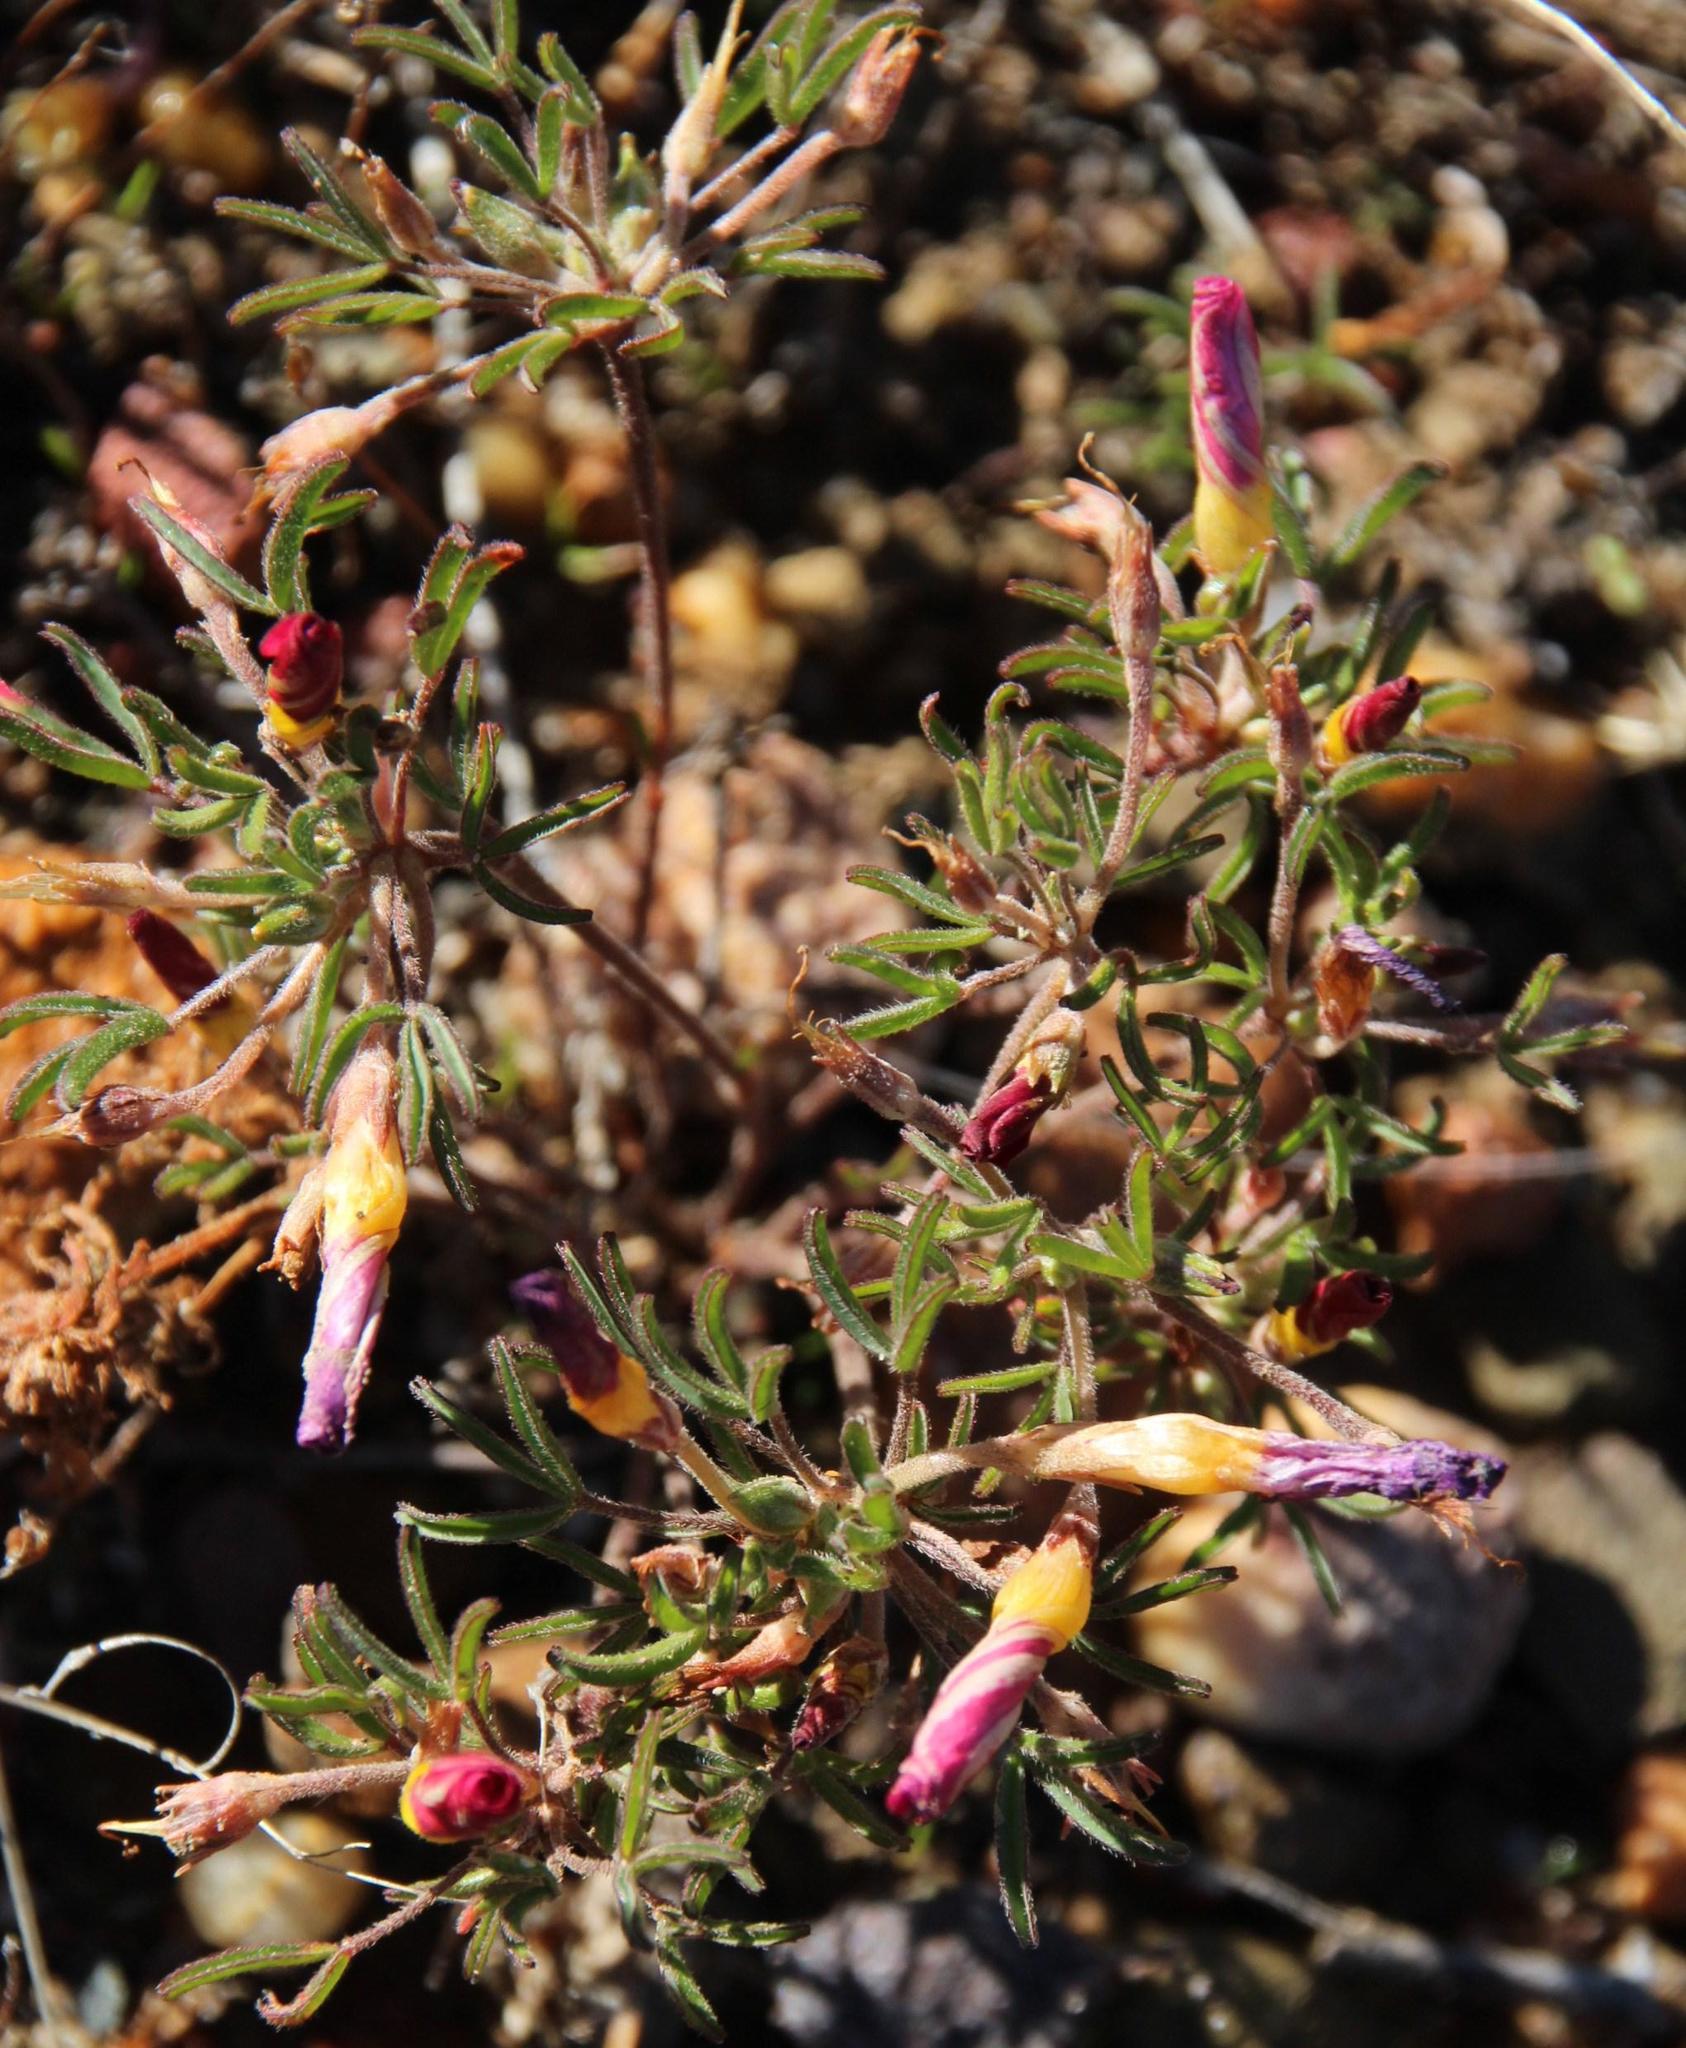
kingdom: Plantae
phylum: Tracheophyta
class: Magnoliopsida
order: Oxalidales
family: Oxalidaceae
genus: Oxalis
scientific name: Oxalis ciliaris
